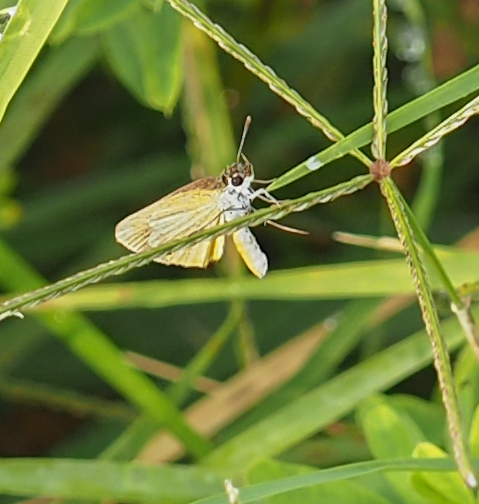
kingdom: Animalia
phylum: Arthropoda
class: Insecta
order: Lepidoptera
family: Hesperiidae
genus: Ancyloxypha
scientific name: Ancyloxypha numitor
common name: Least skipper
